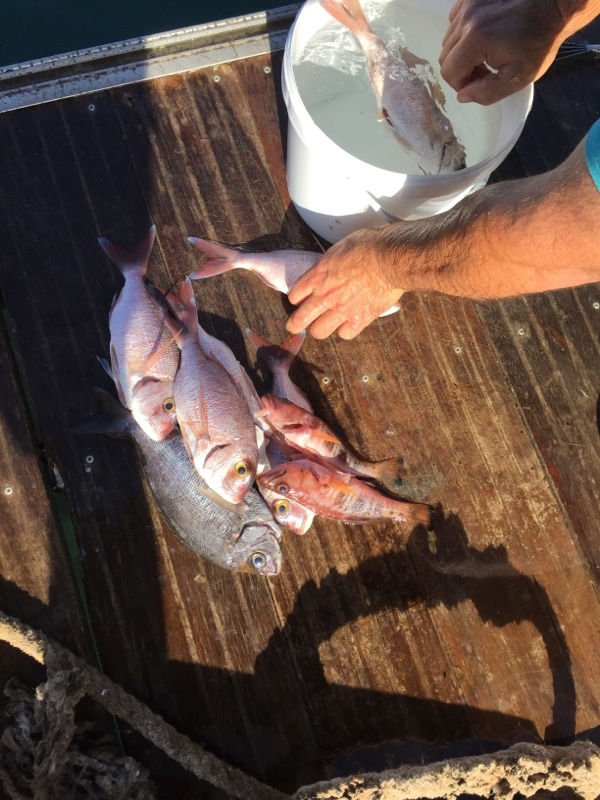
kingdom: Animalia
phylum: Chordata
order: Perciformes
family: Sparidae
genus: Pagrus
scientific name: Pagrus pagrus
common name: Red porgy
